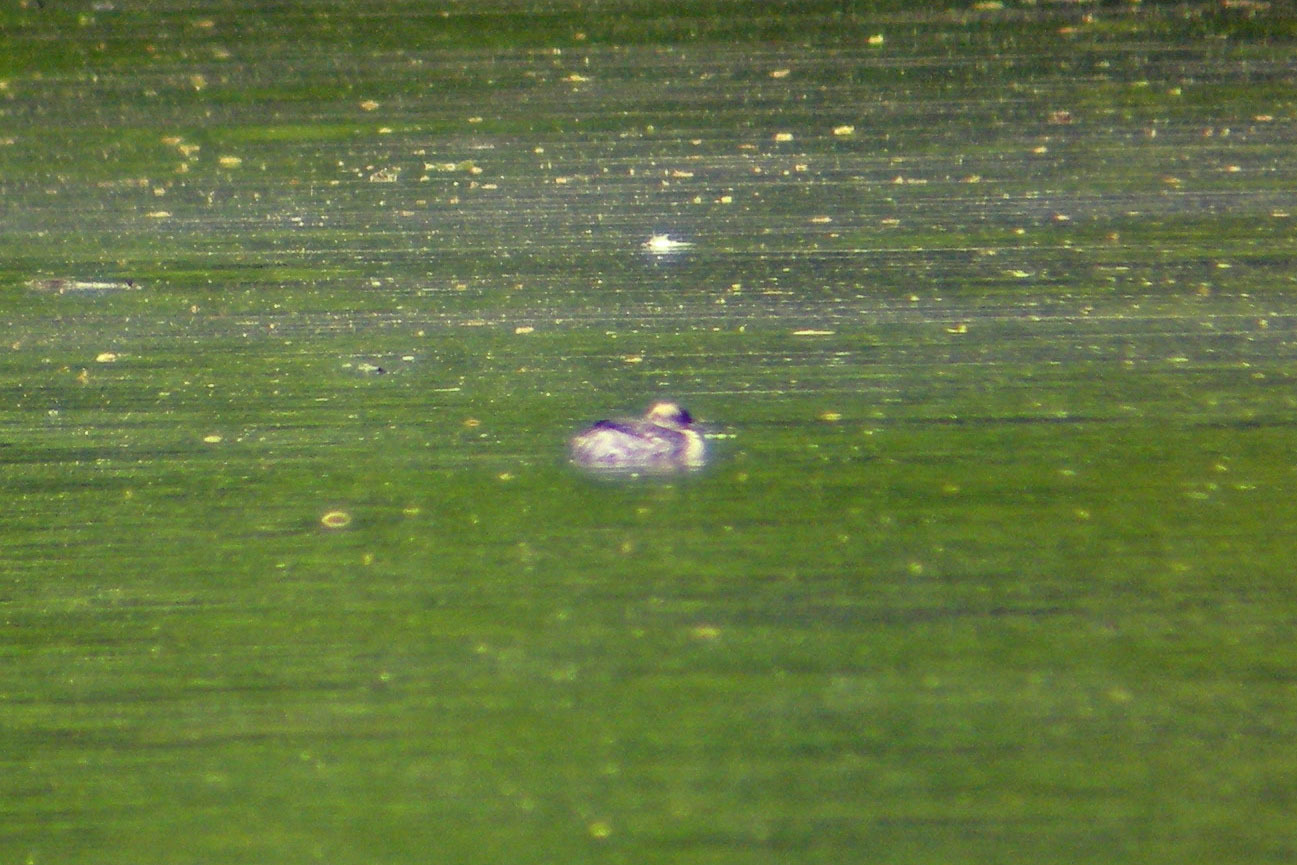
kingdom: Animalia
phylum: Chordata
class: Aves
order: Podicipediformes
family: Podicipedidae
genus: Podiceps
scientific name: Podiceps auritus
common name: Horned grebe
